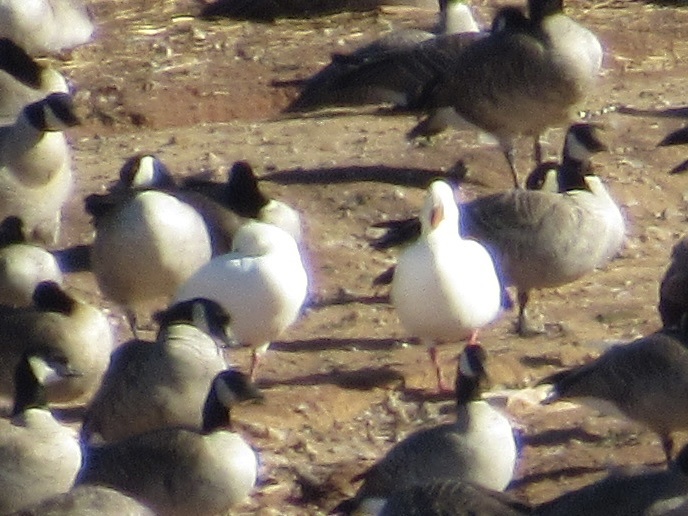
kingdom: Animalia
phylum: Chordata
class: Aves
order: Anseriformes
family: Anatidae
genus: Anser
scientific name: Anser caerulescens
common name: Snow goose
